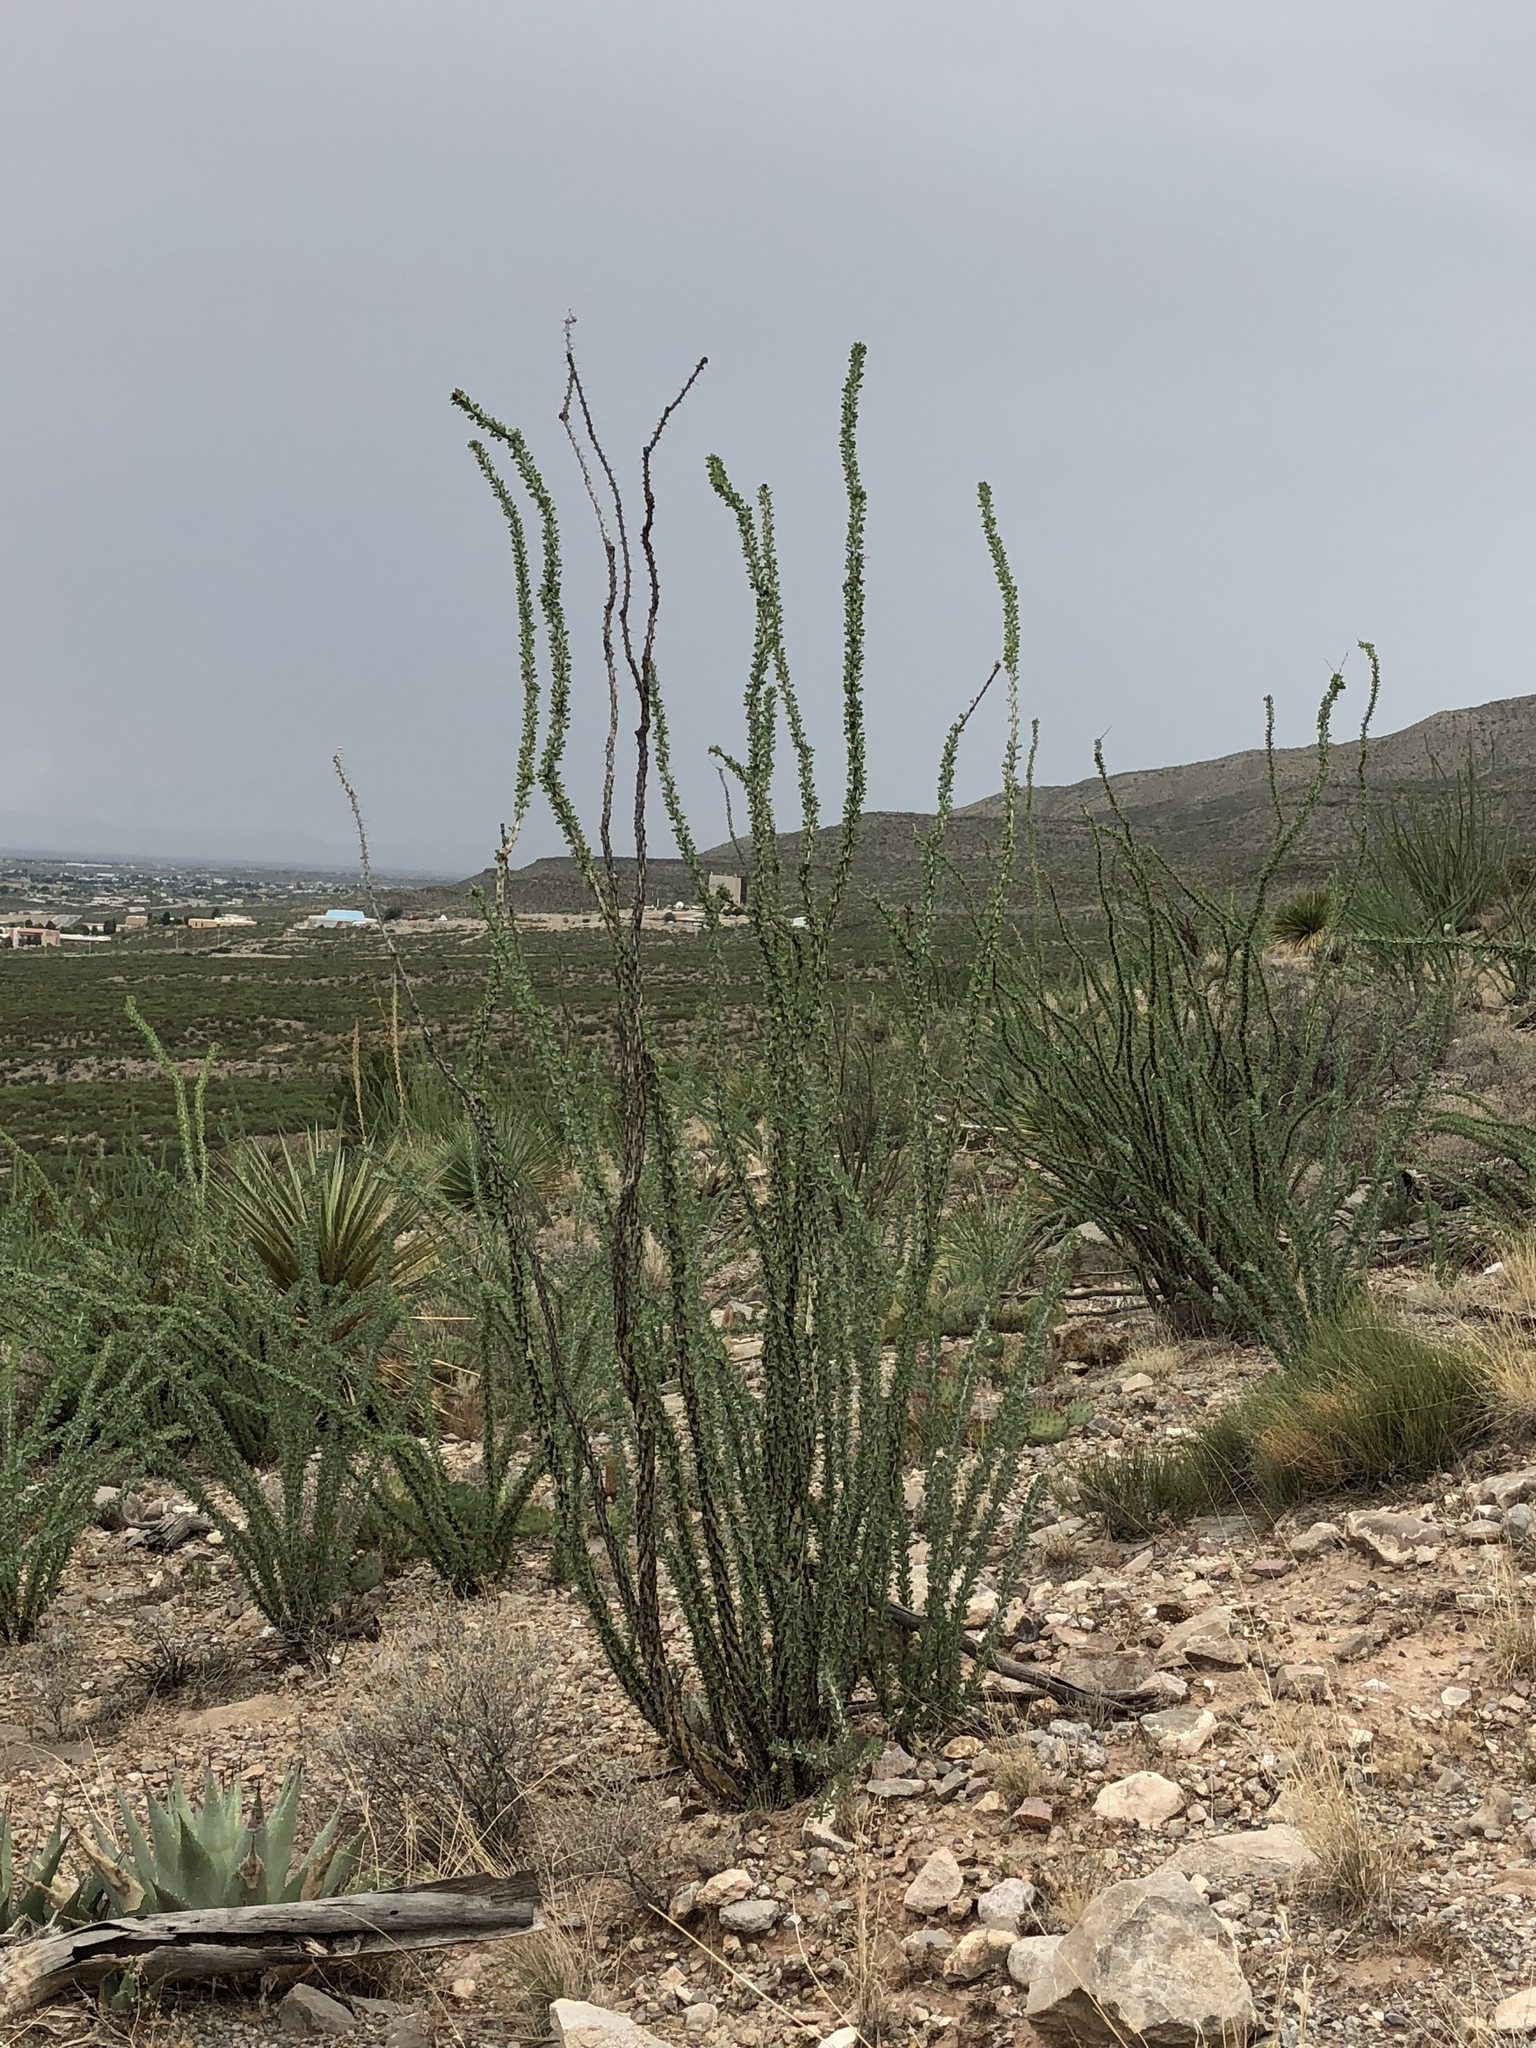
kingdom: Plantae
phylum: Tracheophyta
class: Magnoliopsida
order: Ericales
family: Fouquieriaceae
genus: Fouquieria
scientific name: Fouquieria splendens
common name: Vine-cactus
